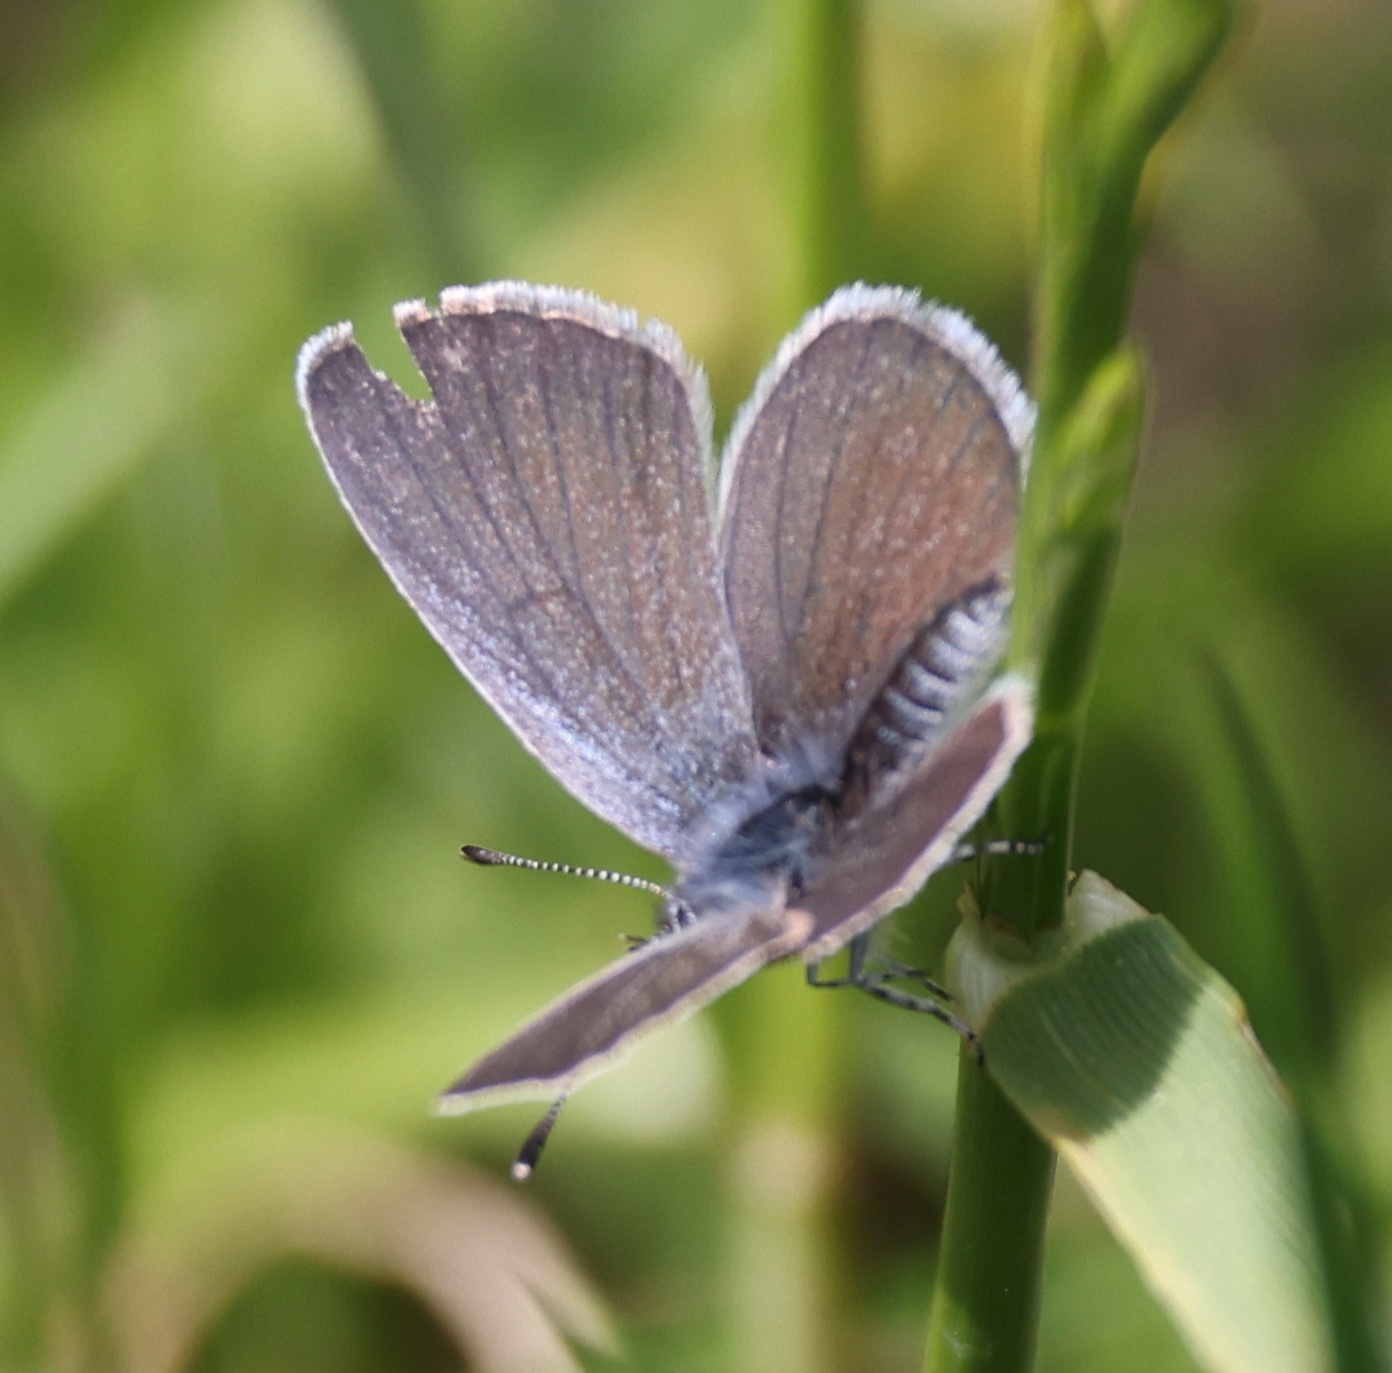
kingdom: Animalia
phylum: Arthropoda
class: Insecta
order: Lepidoptera
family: Lycaenidae
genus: Cupido
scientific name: Cupido minimus
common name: Small blue
